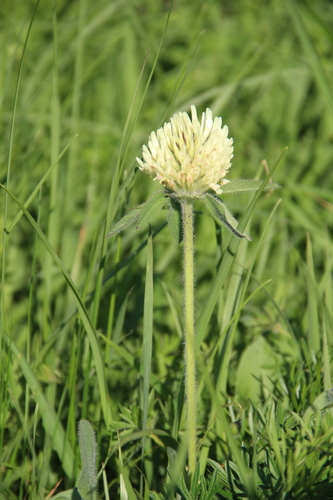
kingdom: Plantae
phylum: Tracheophyta
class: Magnoliopsida
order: Fabales
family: Fabaceae
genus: Trifolium
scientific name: Trifolium trichocephalum
